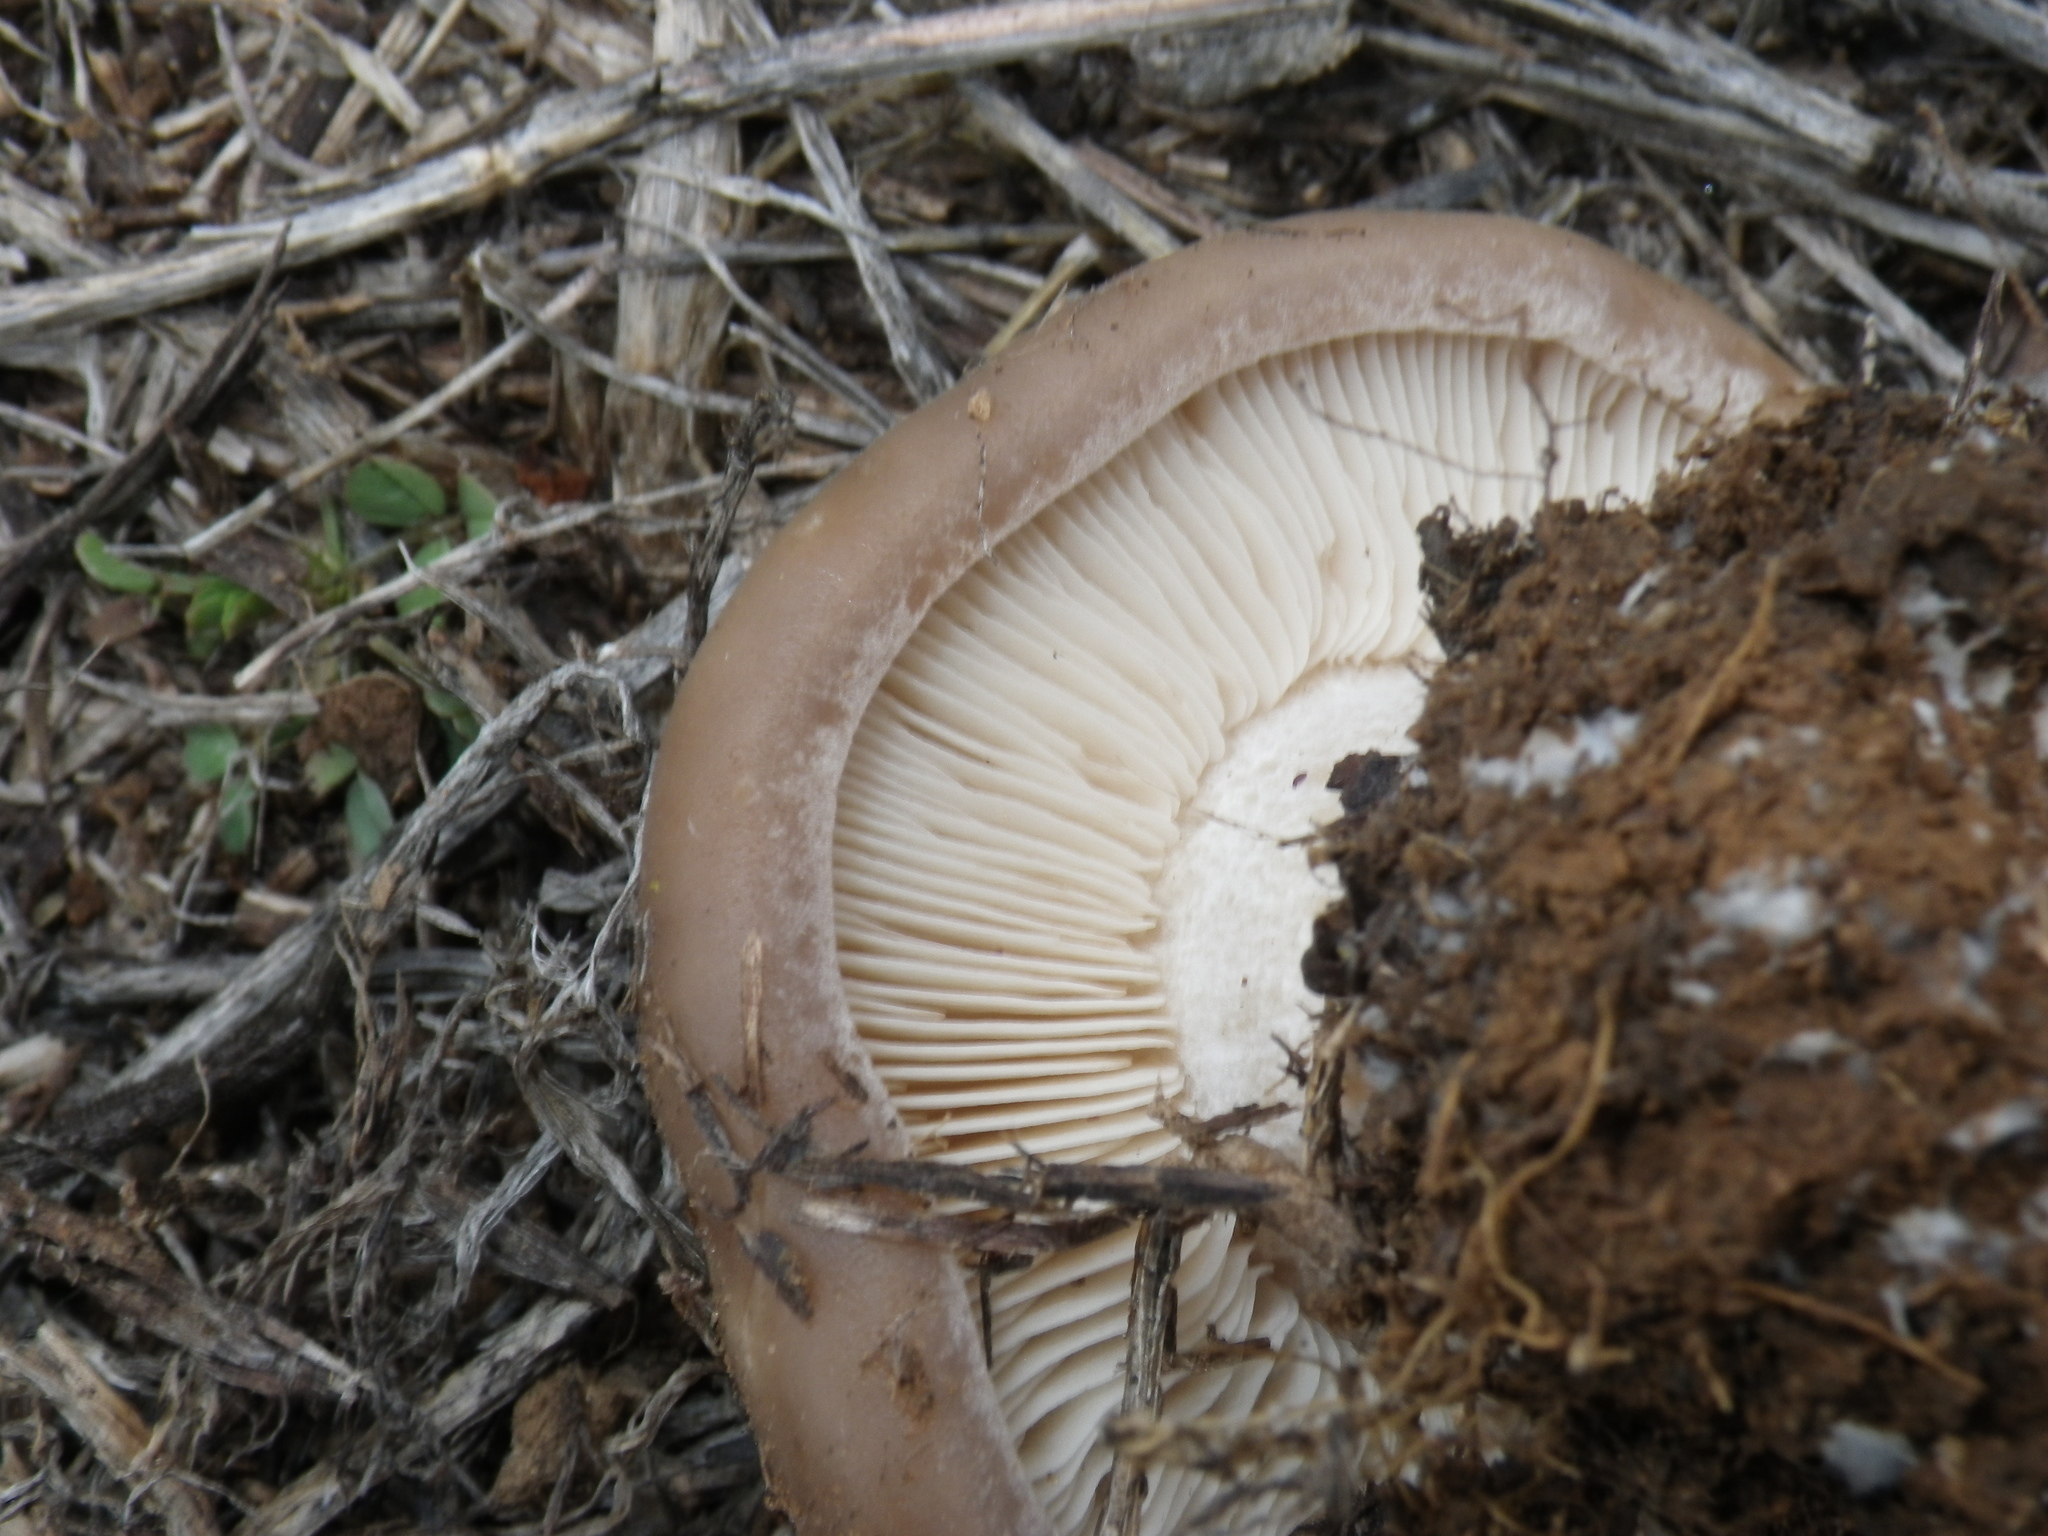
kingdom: Fungi
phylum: Basidiomycota
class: Agaricomycetes
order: Agaricales
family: Tricholomataceae
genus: Collybia
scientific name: Collybia
